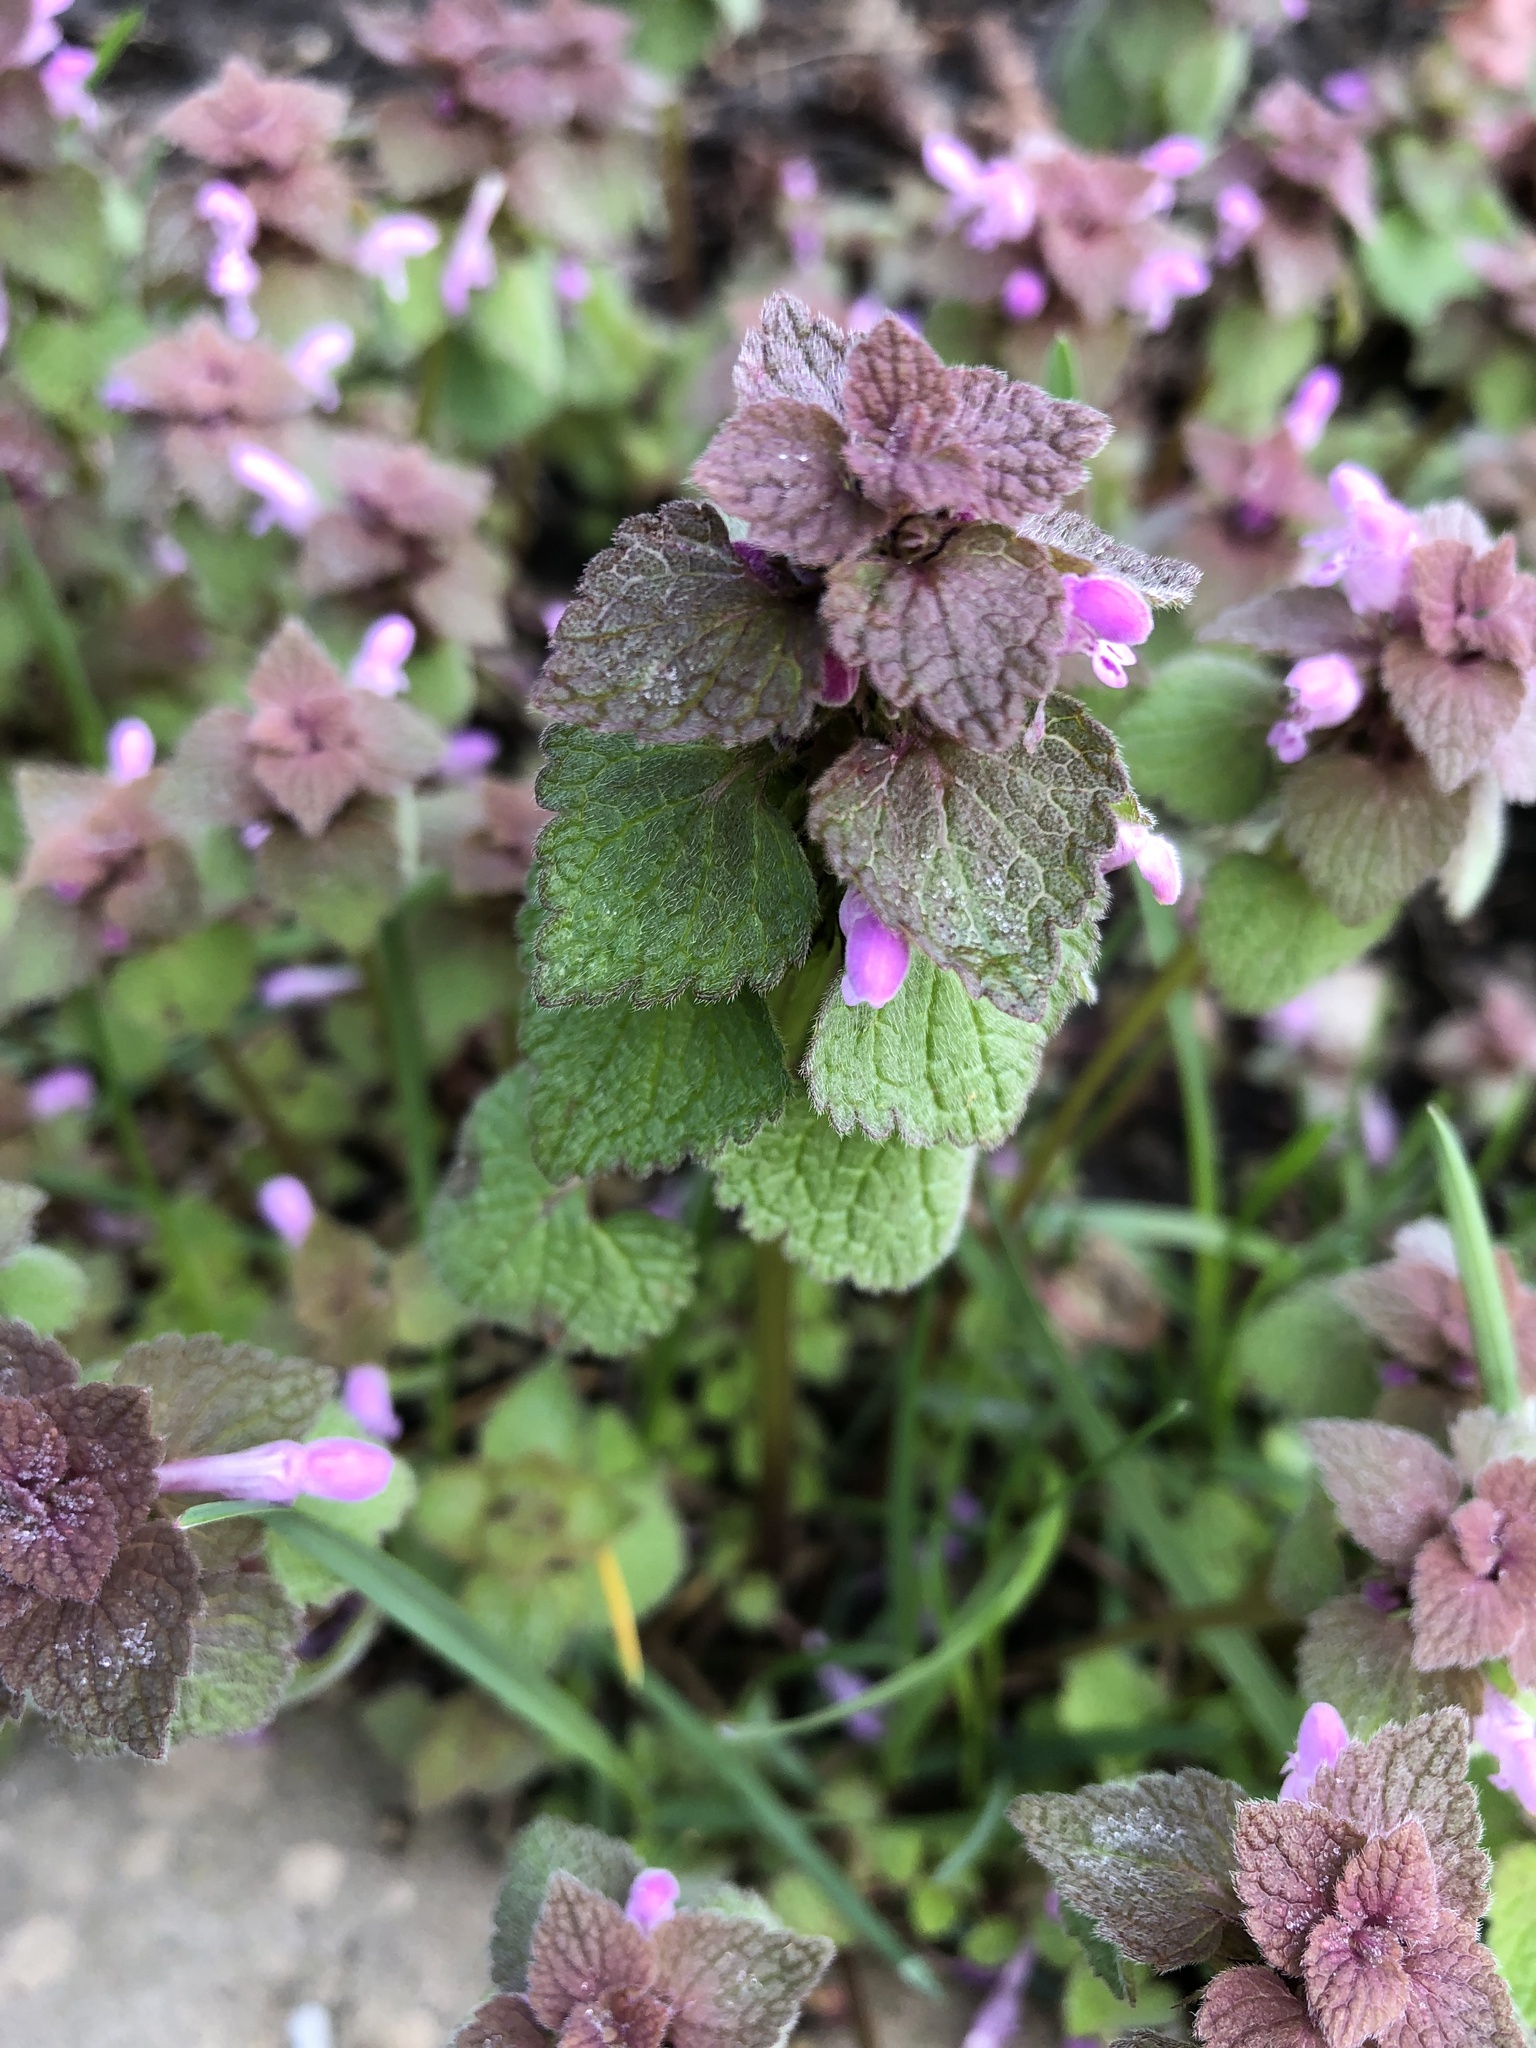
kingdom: Plantae
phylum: Tracheophyta
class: Magnoliopsida
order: Lamiales
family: Lamiaceae
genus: Lamium
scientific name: Lamium purpureum
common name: Red dead-nettle
